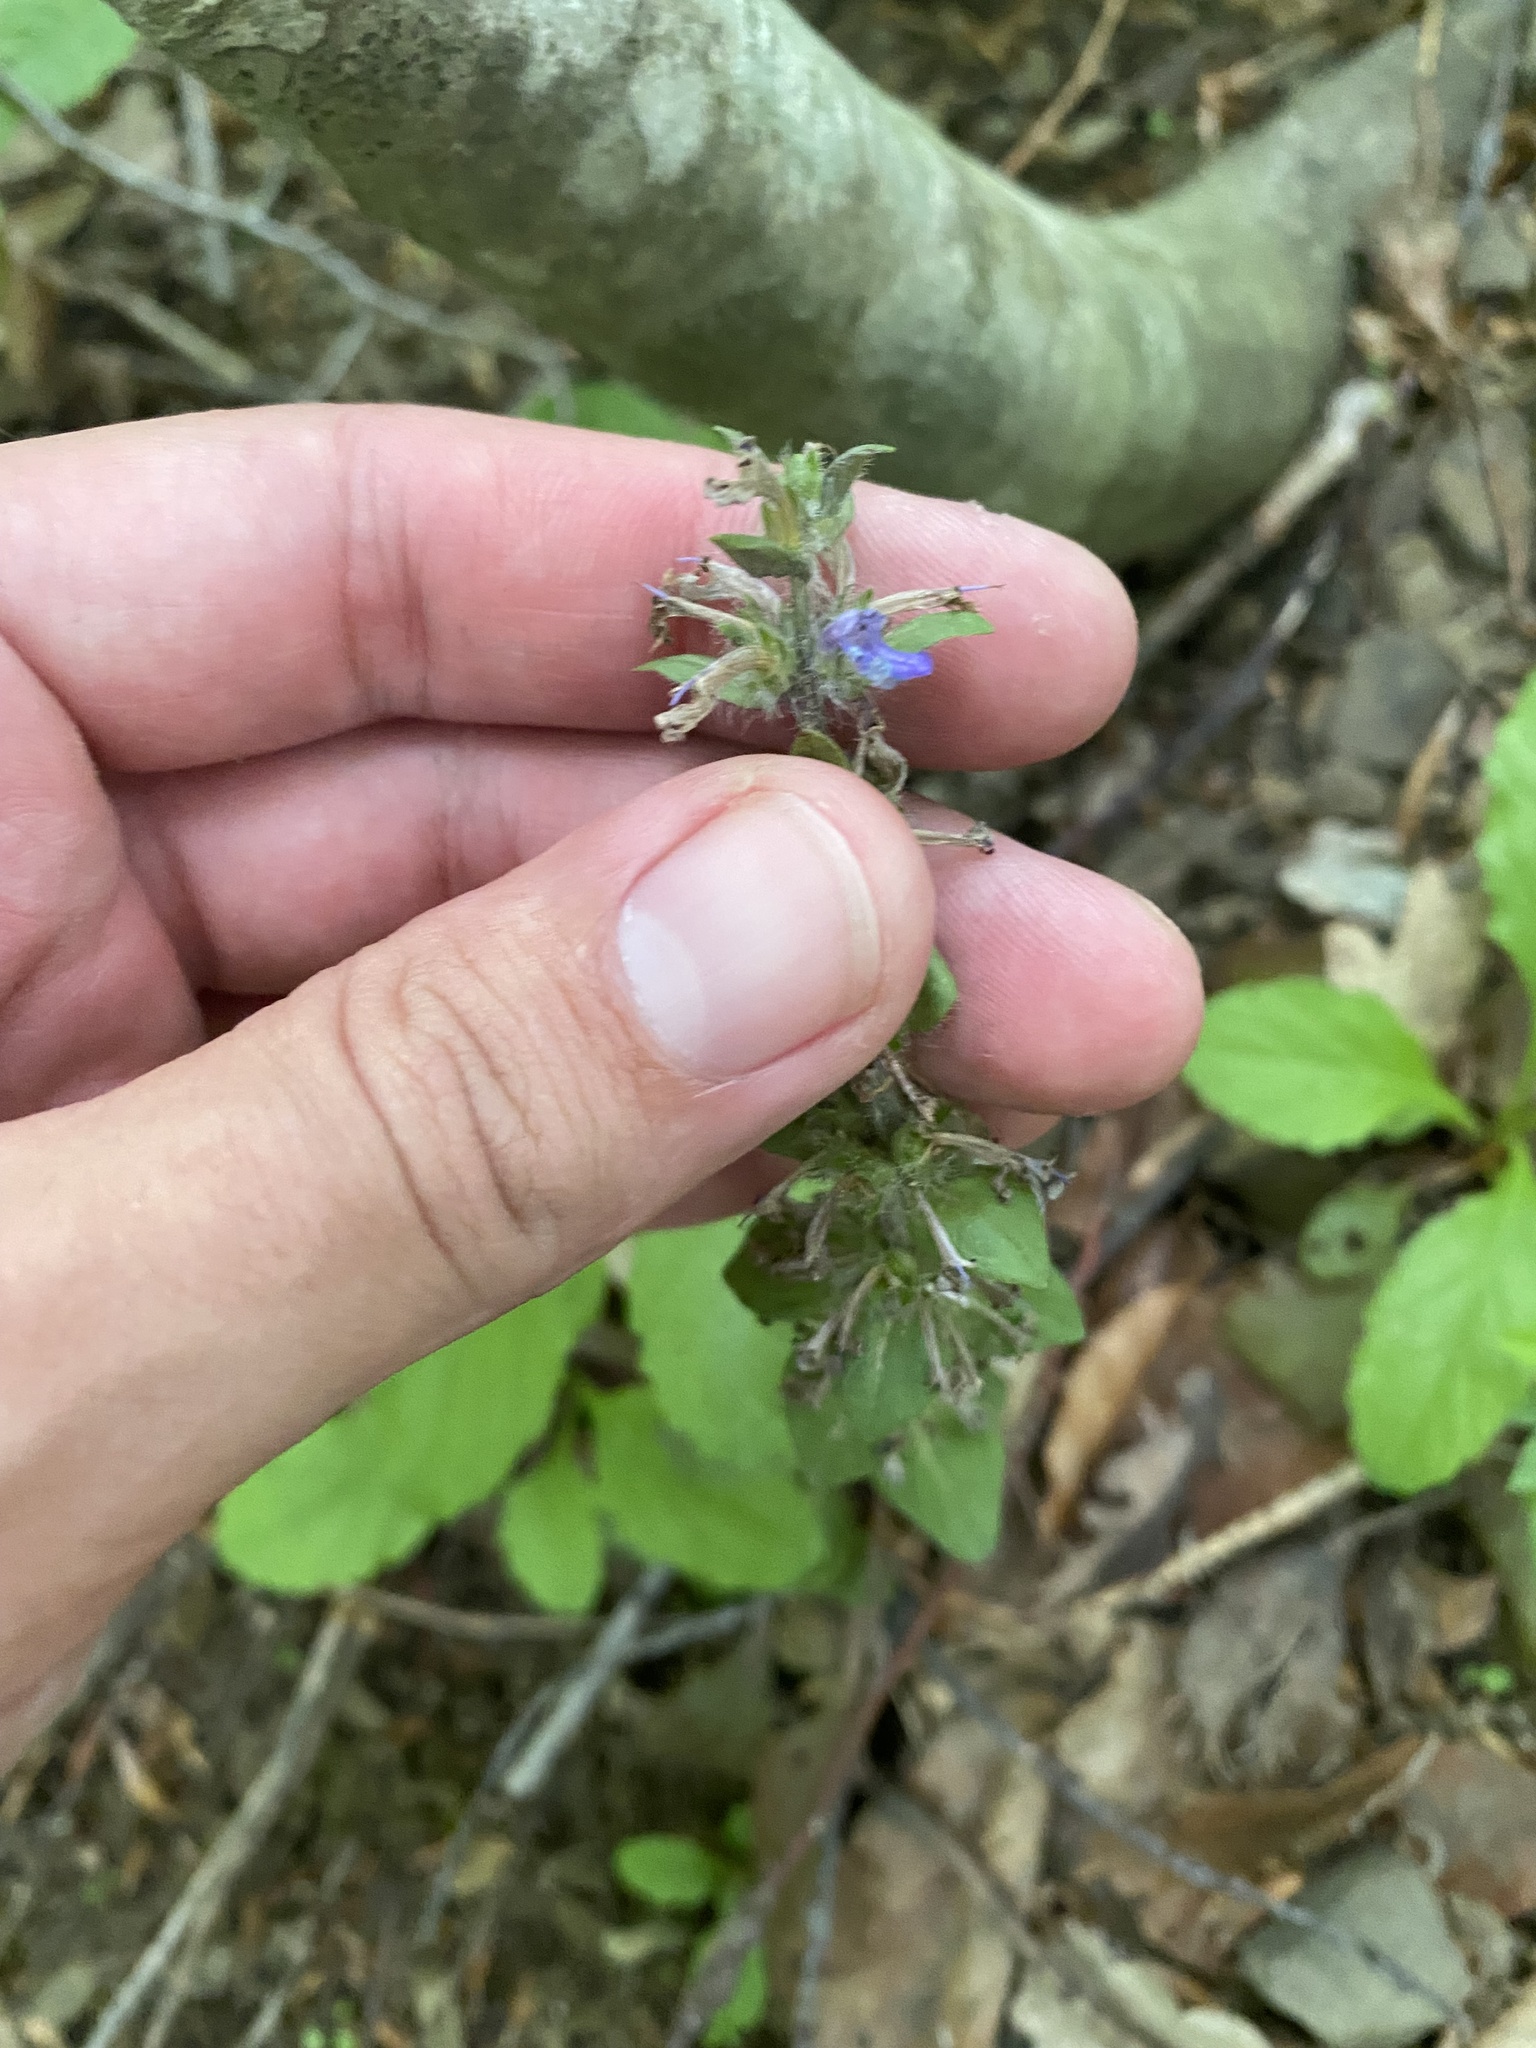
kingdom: Plantae
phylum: Tracheophyta
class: Magnoliopsida
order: Lamiales
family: Lamiaceae
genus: Ajuga
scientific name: Ajuga reptans
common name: Bugle
